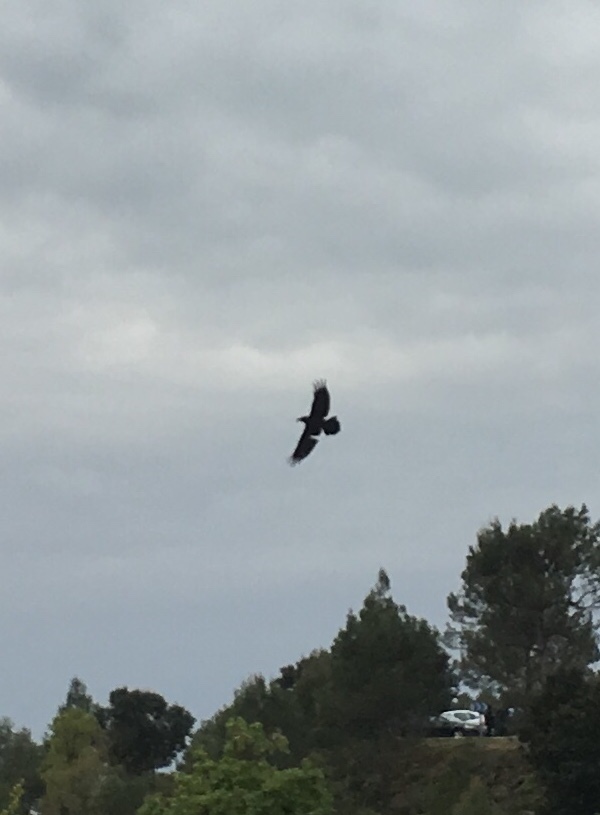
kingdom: Animalia
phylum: Chordata
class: Aves
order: Passeriformes
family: Corvidae
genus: Corvus
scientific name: Corvus corax
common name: Common raven
